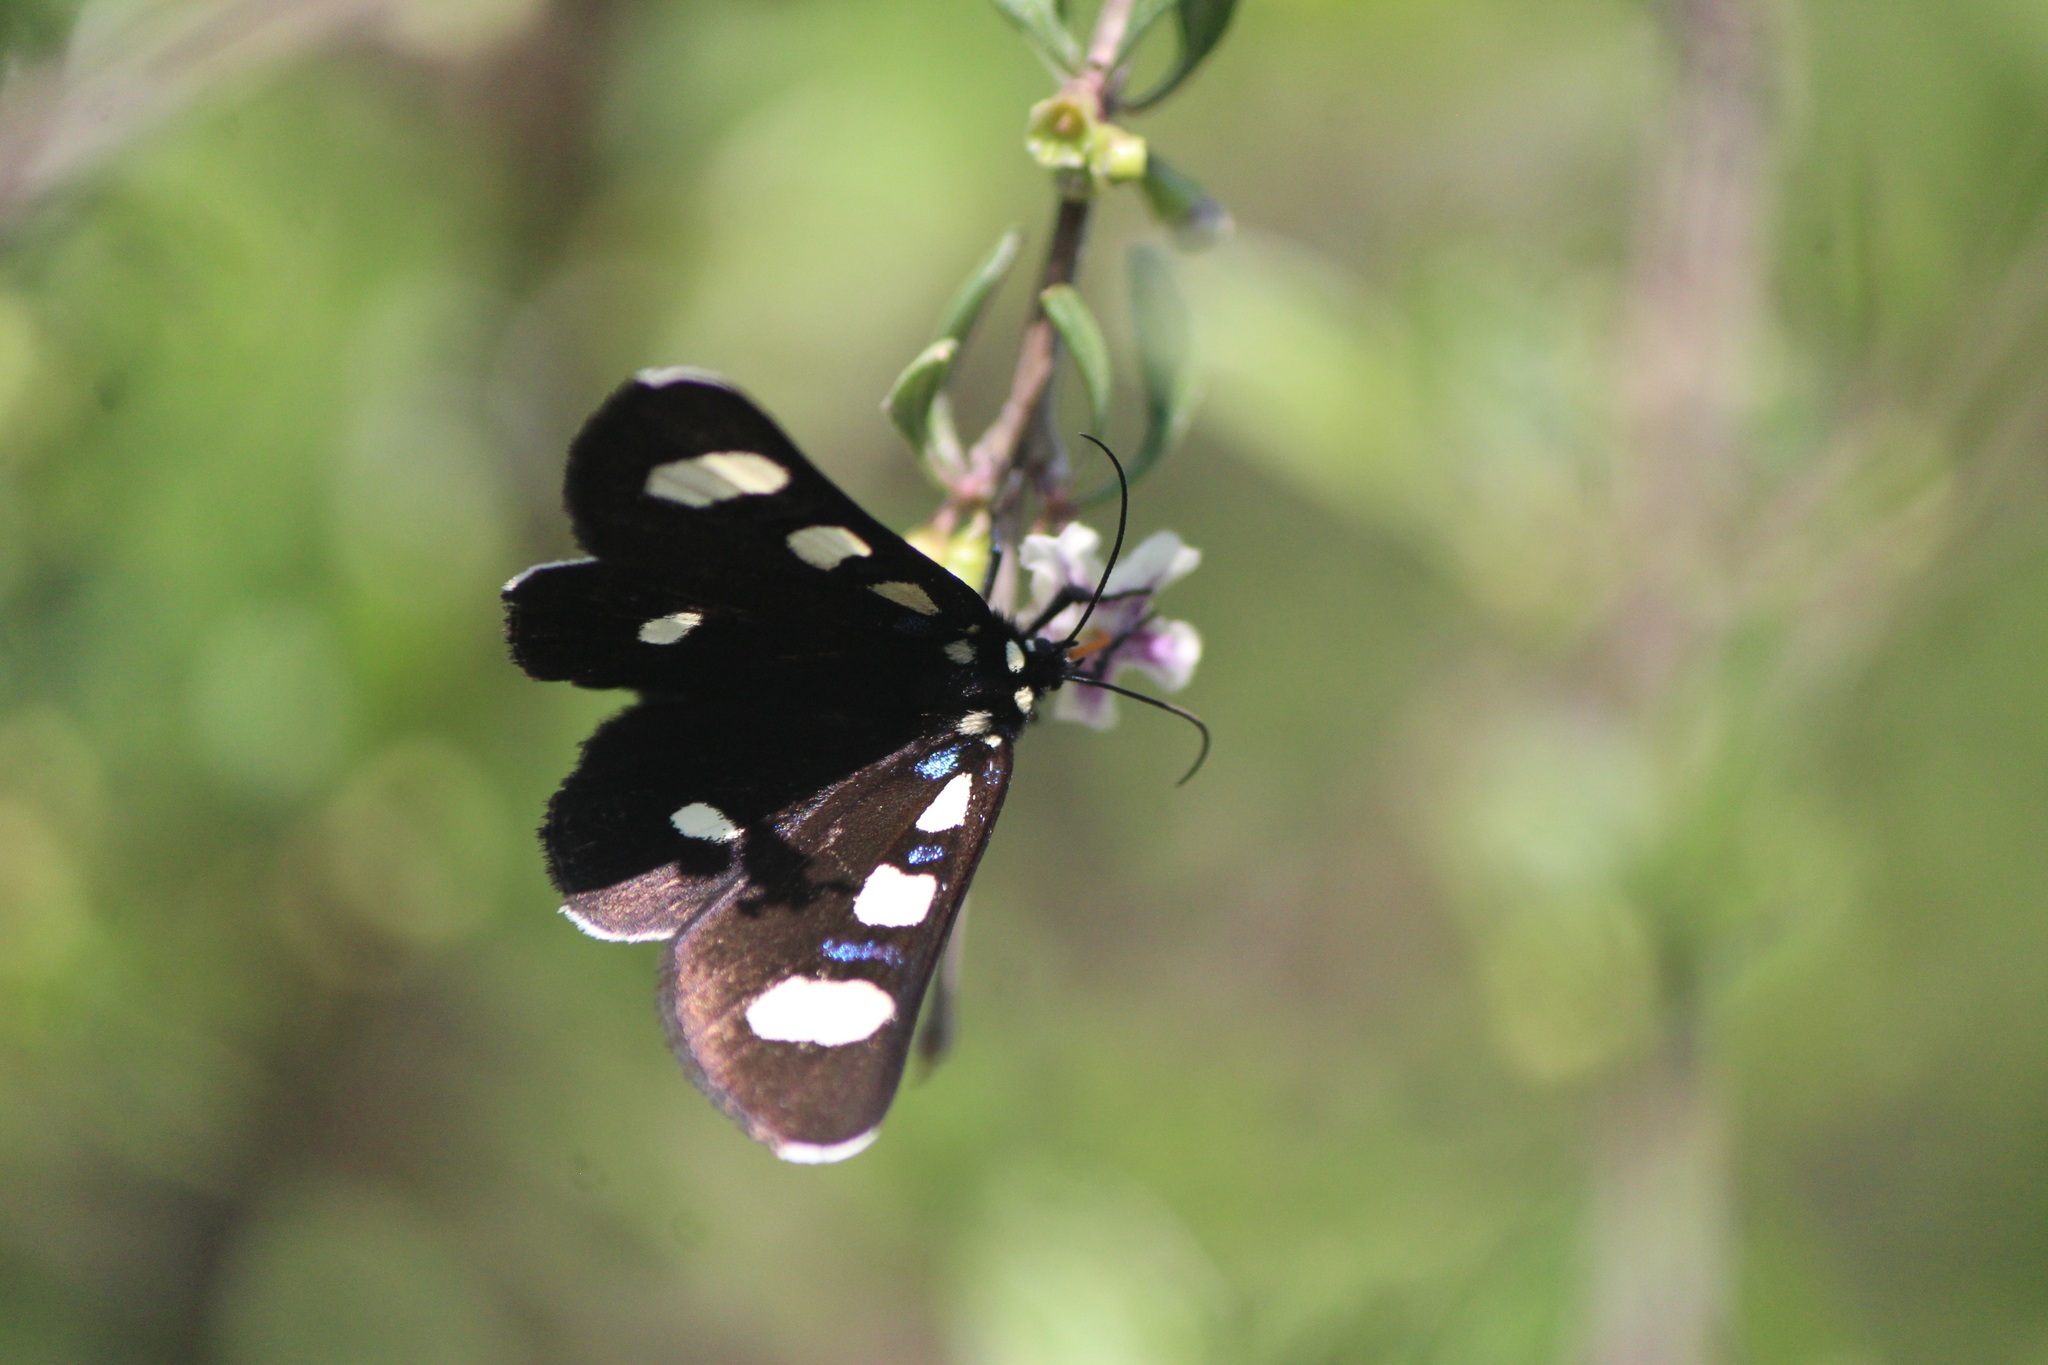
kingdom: Animalia
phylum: Arthropoda
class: Insecta
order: Lepidoptera
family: Noctuidae
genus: Alypiodes
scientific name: Alypiodes bimaculata
